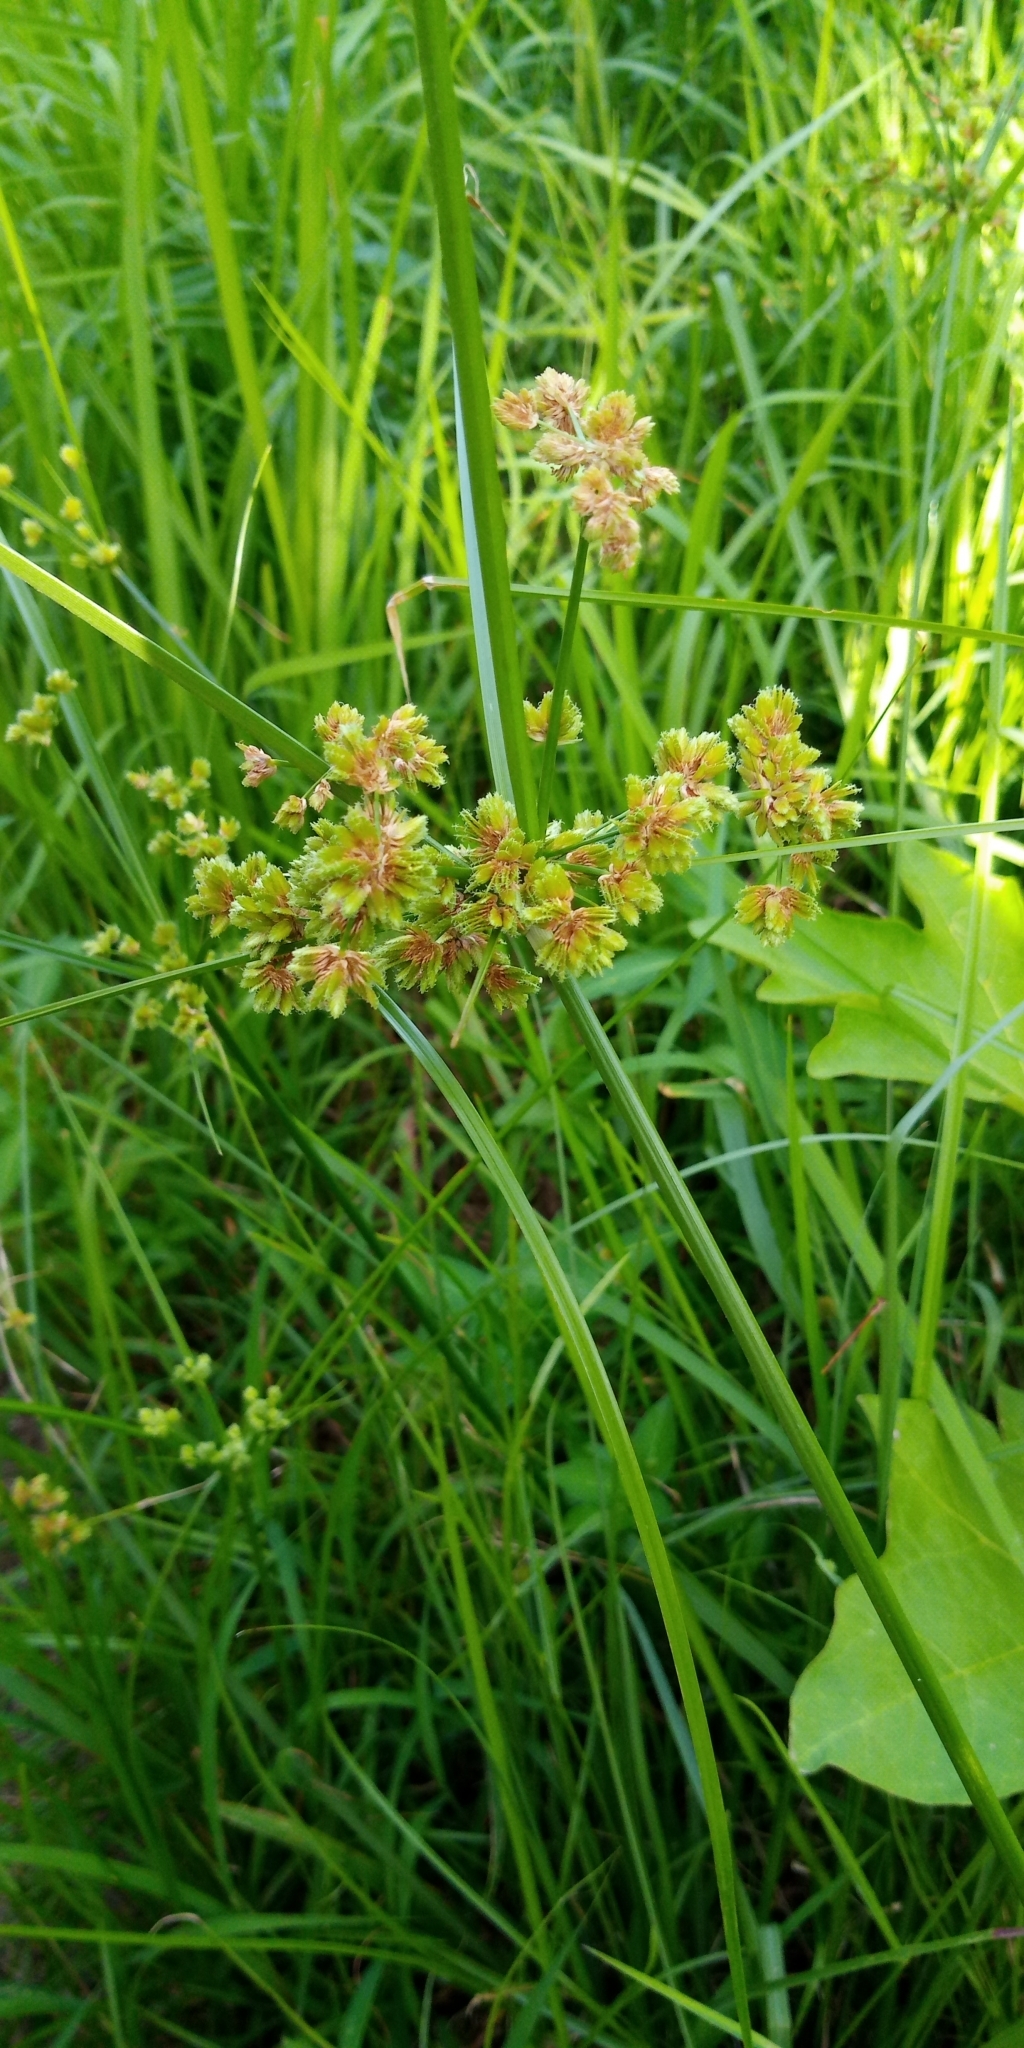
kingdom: Plantae
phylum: Tracheophyta
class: Liliopsida
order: Poales
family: Cyperaceae
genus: Cyperus
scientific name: Cyperus surinamensis
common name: Tropical flat sedge
